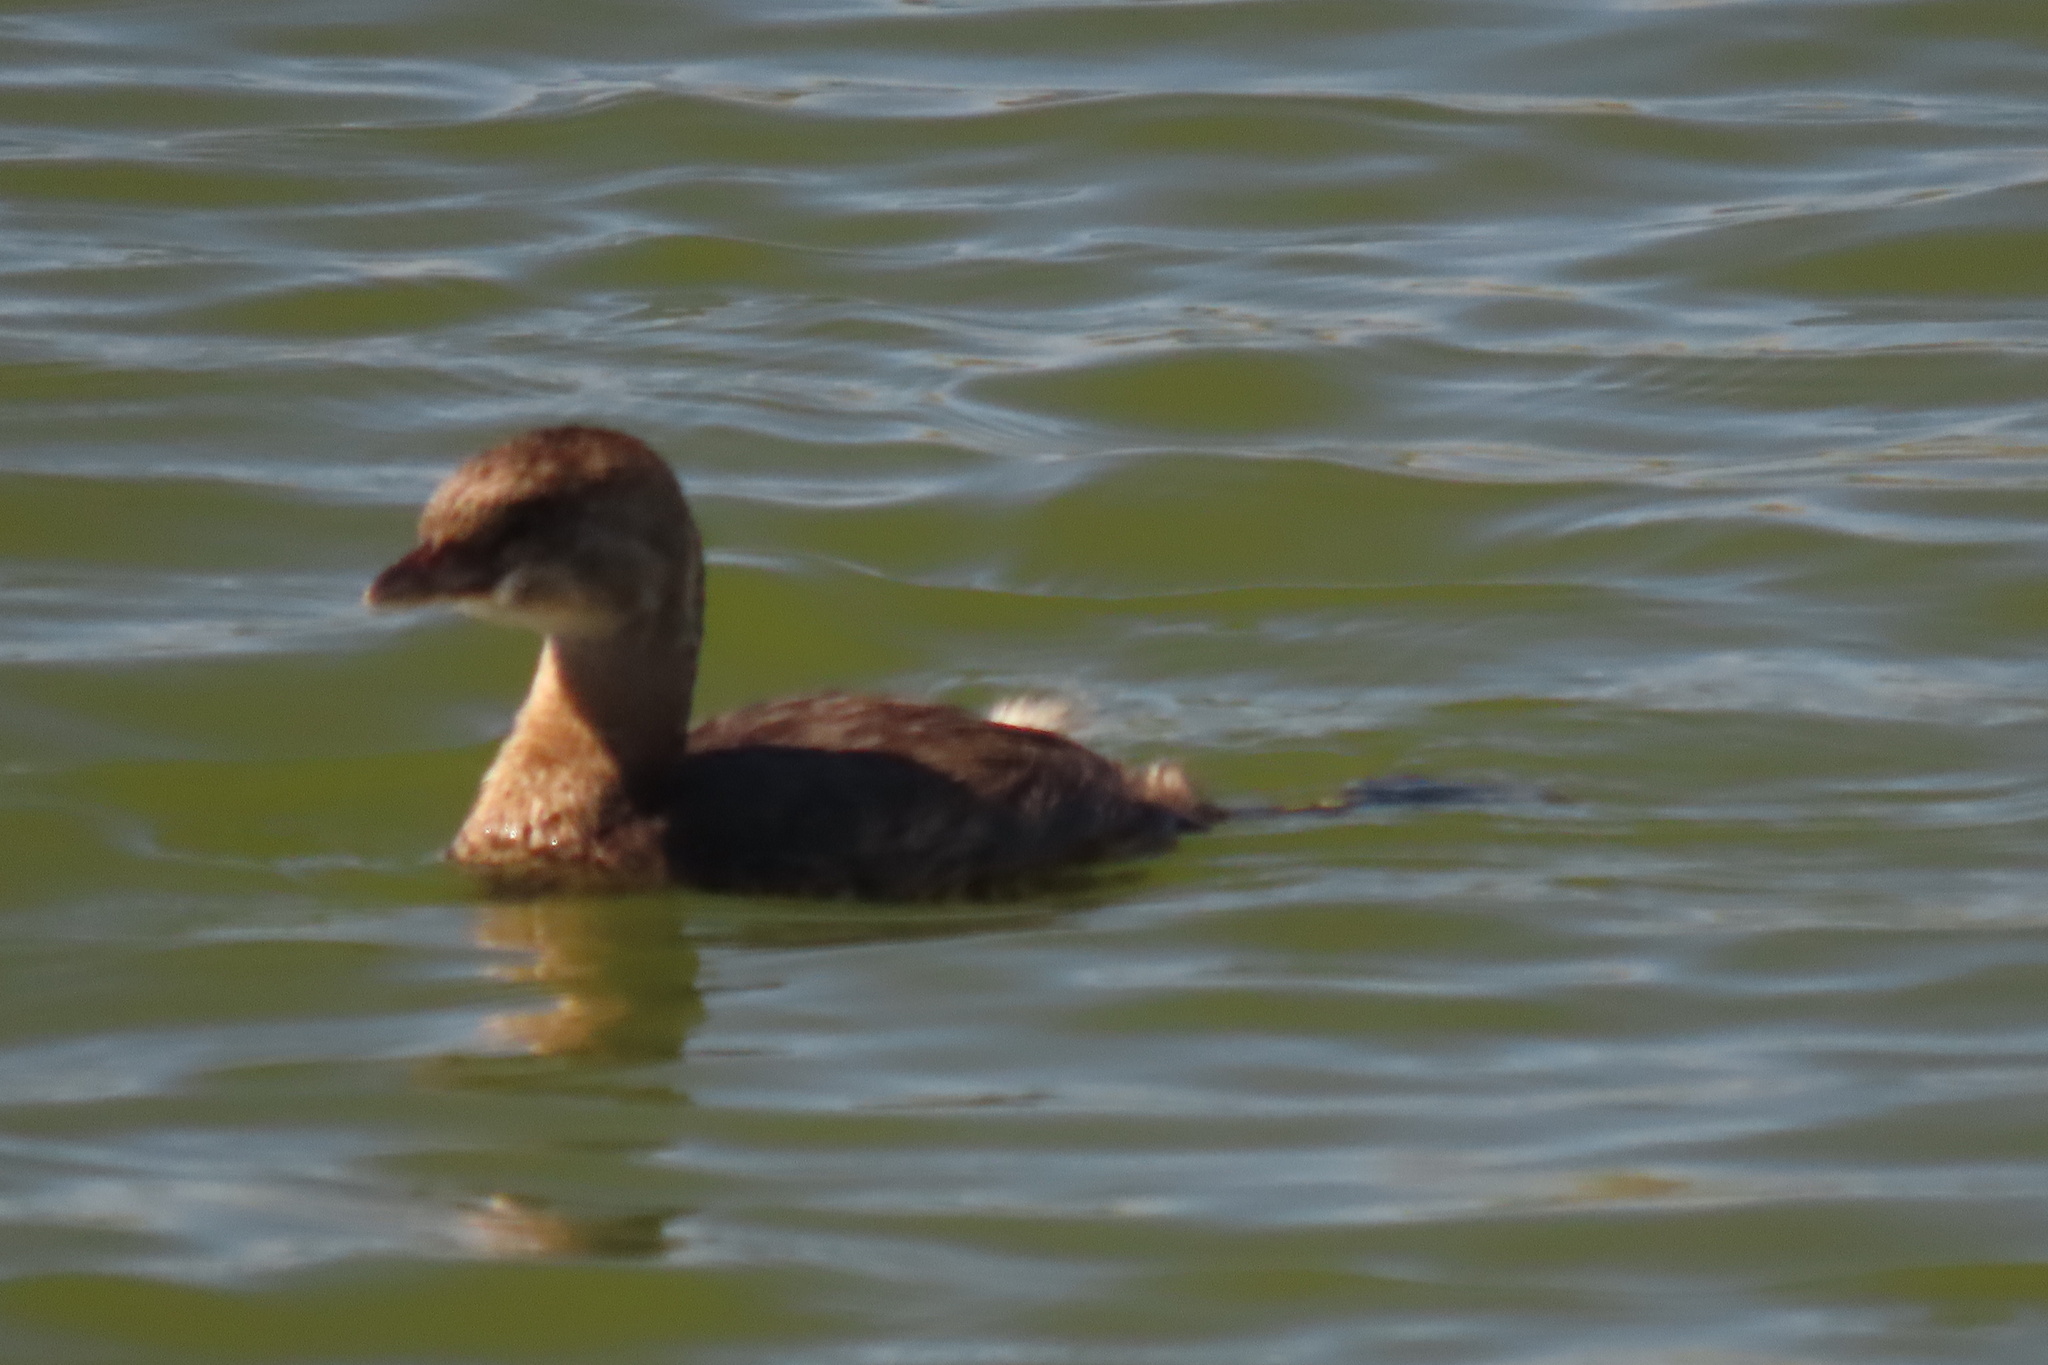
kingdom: Animalia
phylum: Chordata
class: Aves
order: Podicipediformes
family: Podicipedidae
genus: Podilymbus
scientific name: Podilymbus podiceps
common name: Pied-billed grebe
